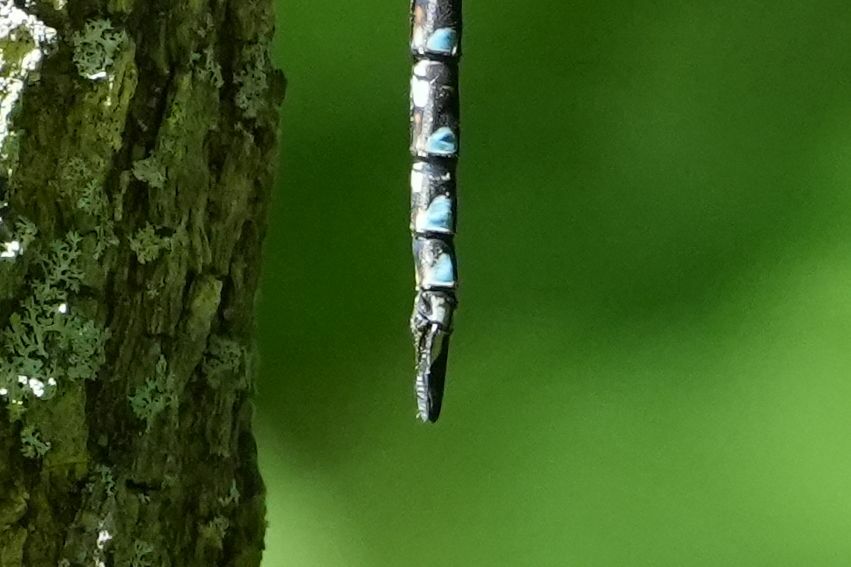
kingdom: Animalia
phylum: Arthropoda
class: Insecta
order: Odonata
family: Aeshnidae
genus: Aeshna
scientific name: Aeshna canadensis
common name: Canada darner
